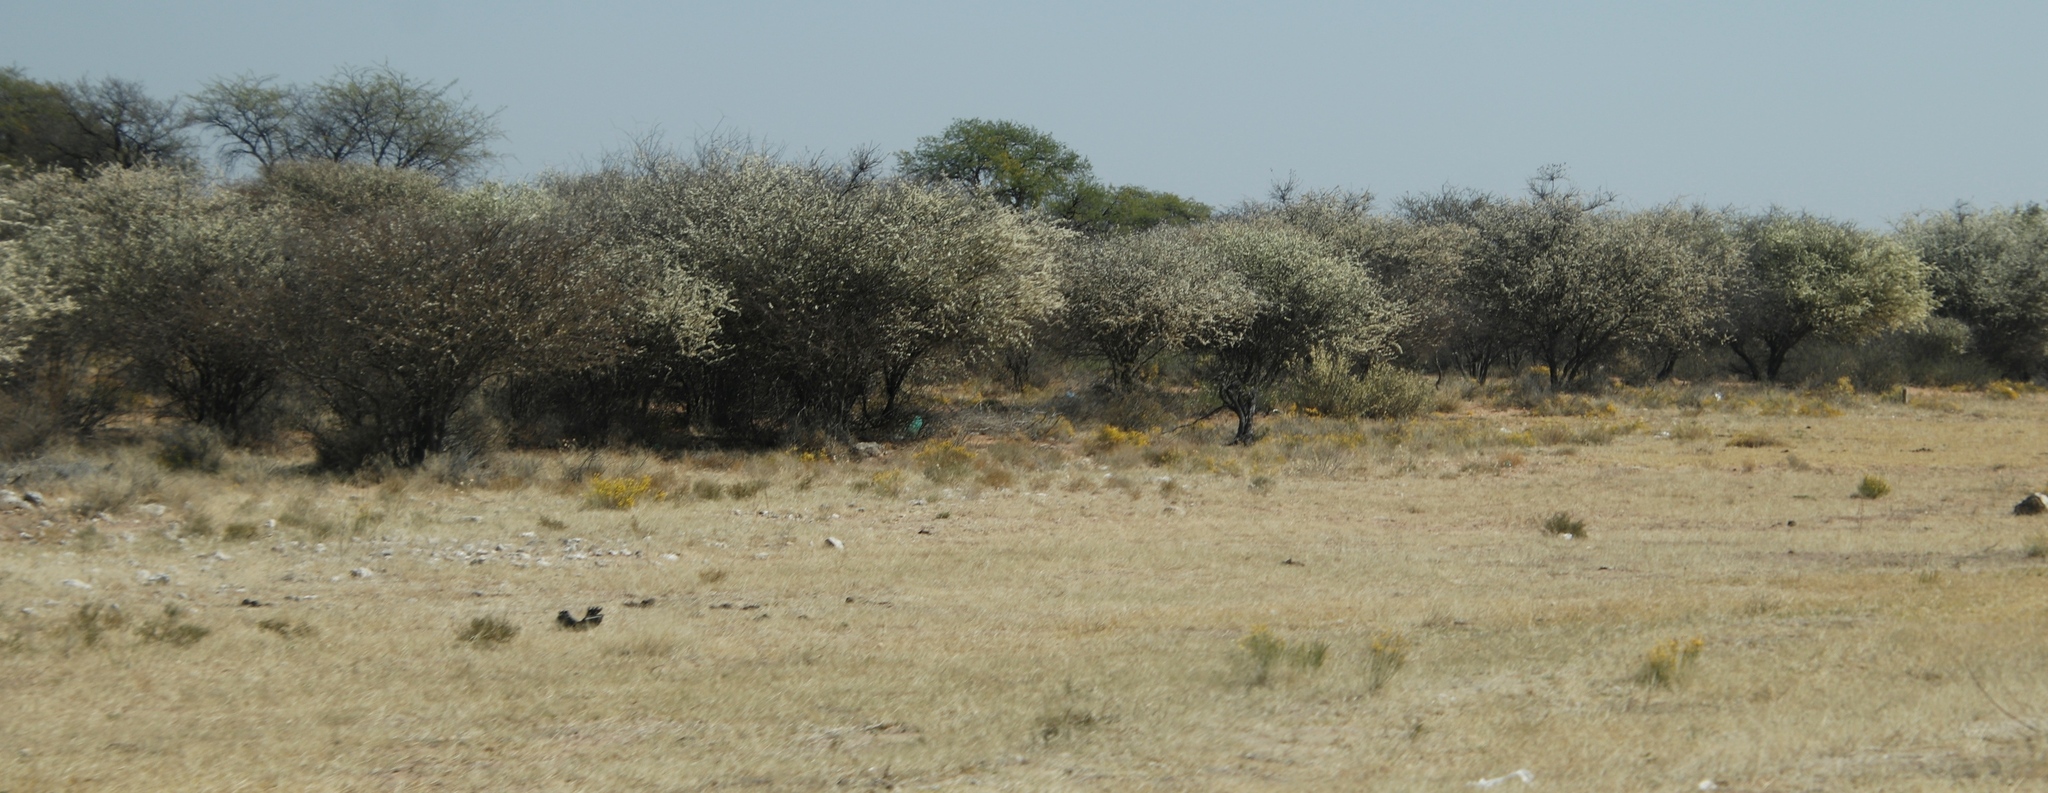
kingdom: Plantae
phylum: Tracheophyta
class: Magnoliopsida
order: Fabales
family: Fabaceae
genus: Senegalia
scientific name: Senegalia mellifera
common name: Hookthorn
